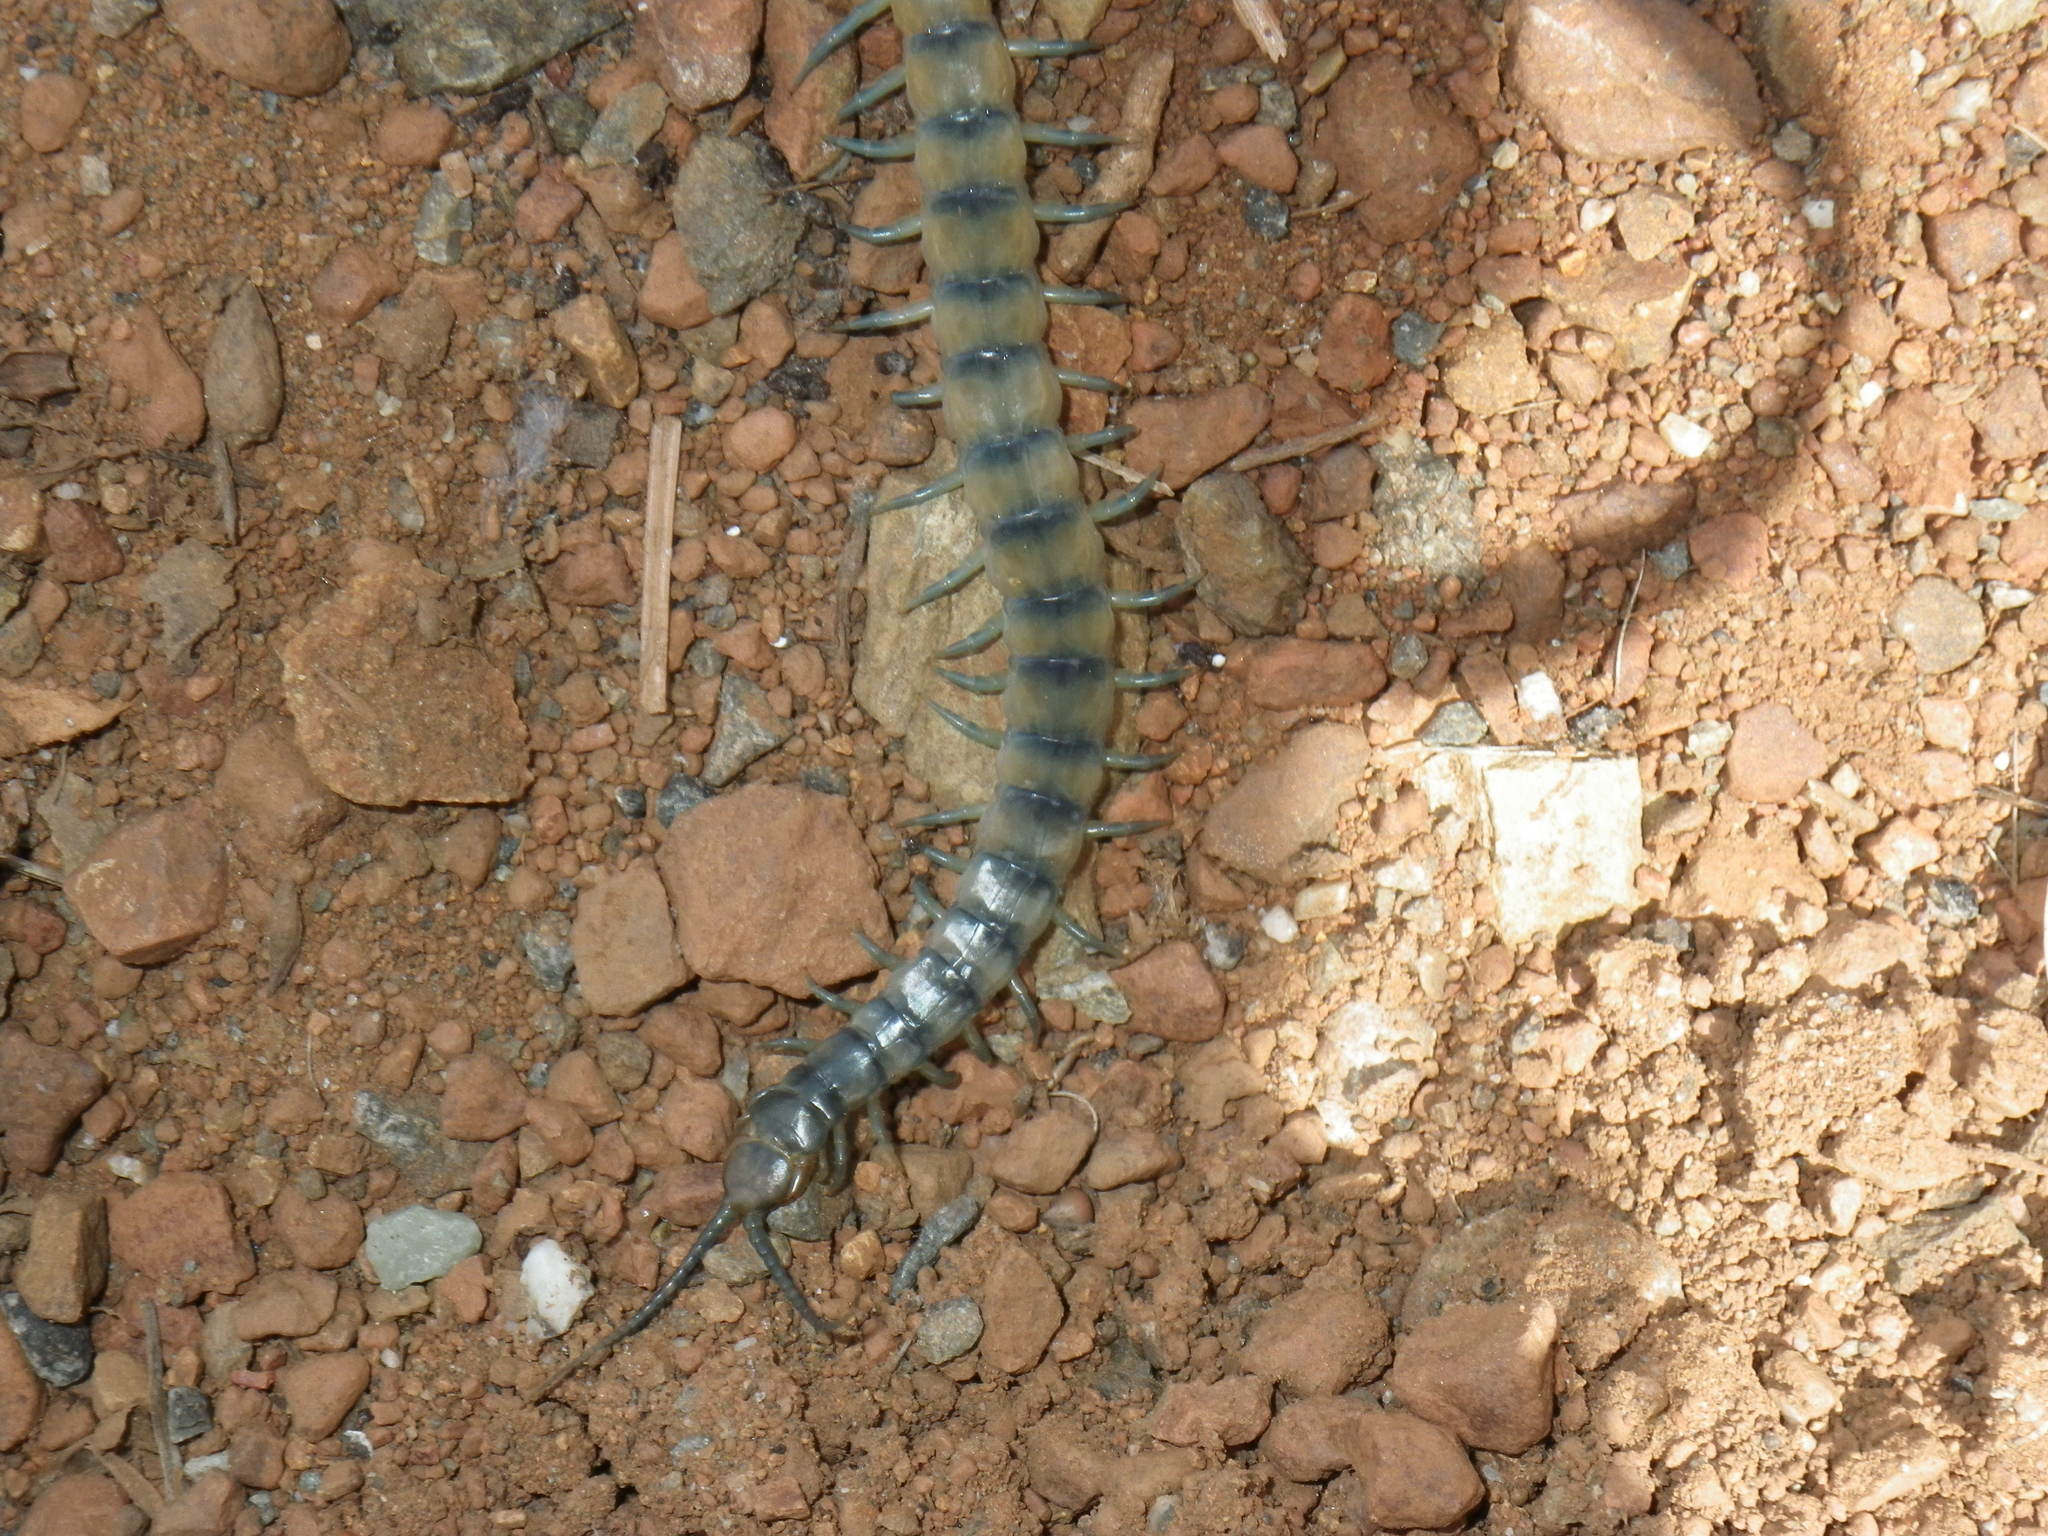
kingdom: Animalia
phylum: Arthropoda
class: Chilopoda
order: Scolopendromorpha
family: Scolopendridae
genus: Scolopendra
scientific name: Scolopendra polymorpha
